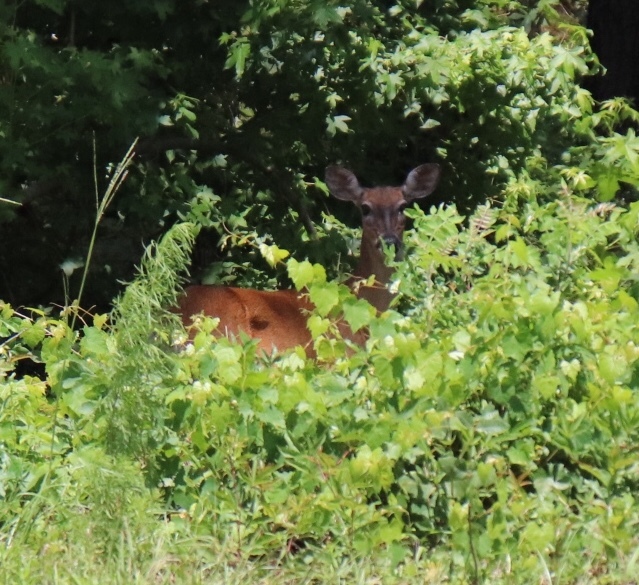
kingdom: Animalia
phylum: Chordata
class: Mammalia
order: Artiodactyla
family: Cervidae
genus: Odocoileus
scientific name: Odocoileus virginianus
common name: White-tailed deer
